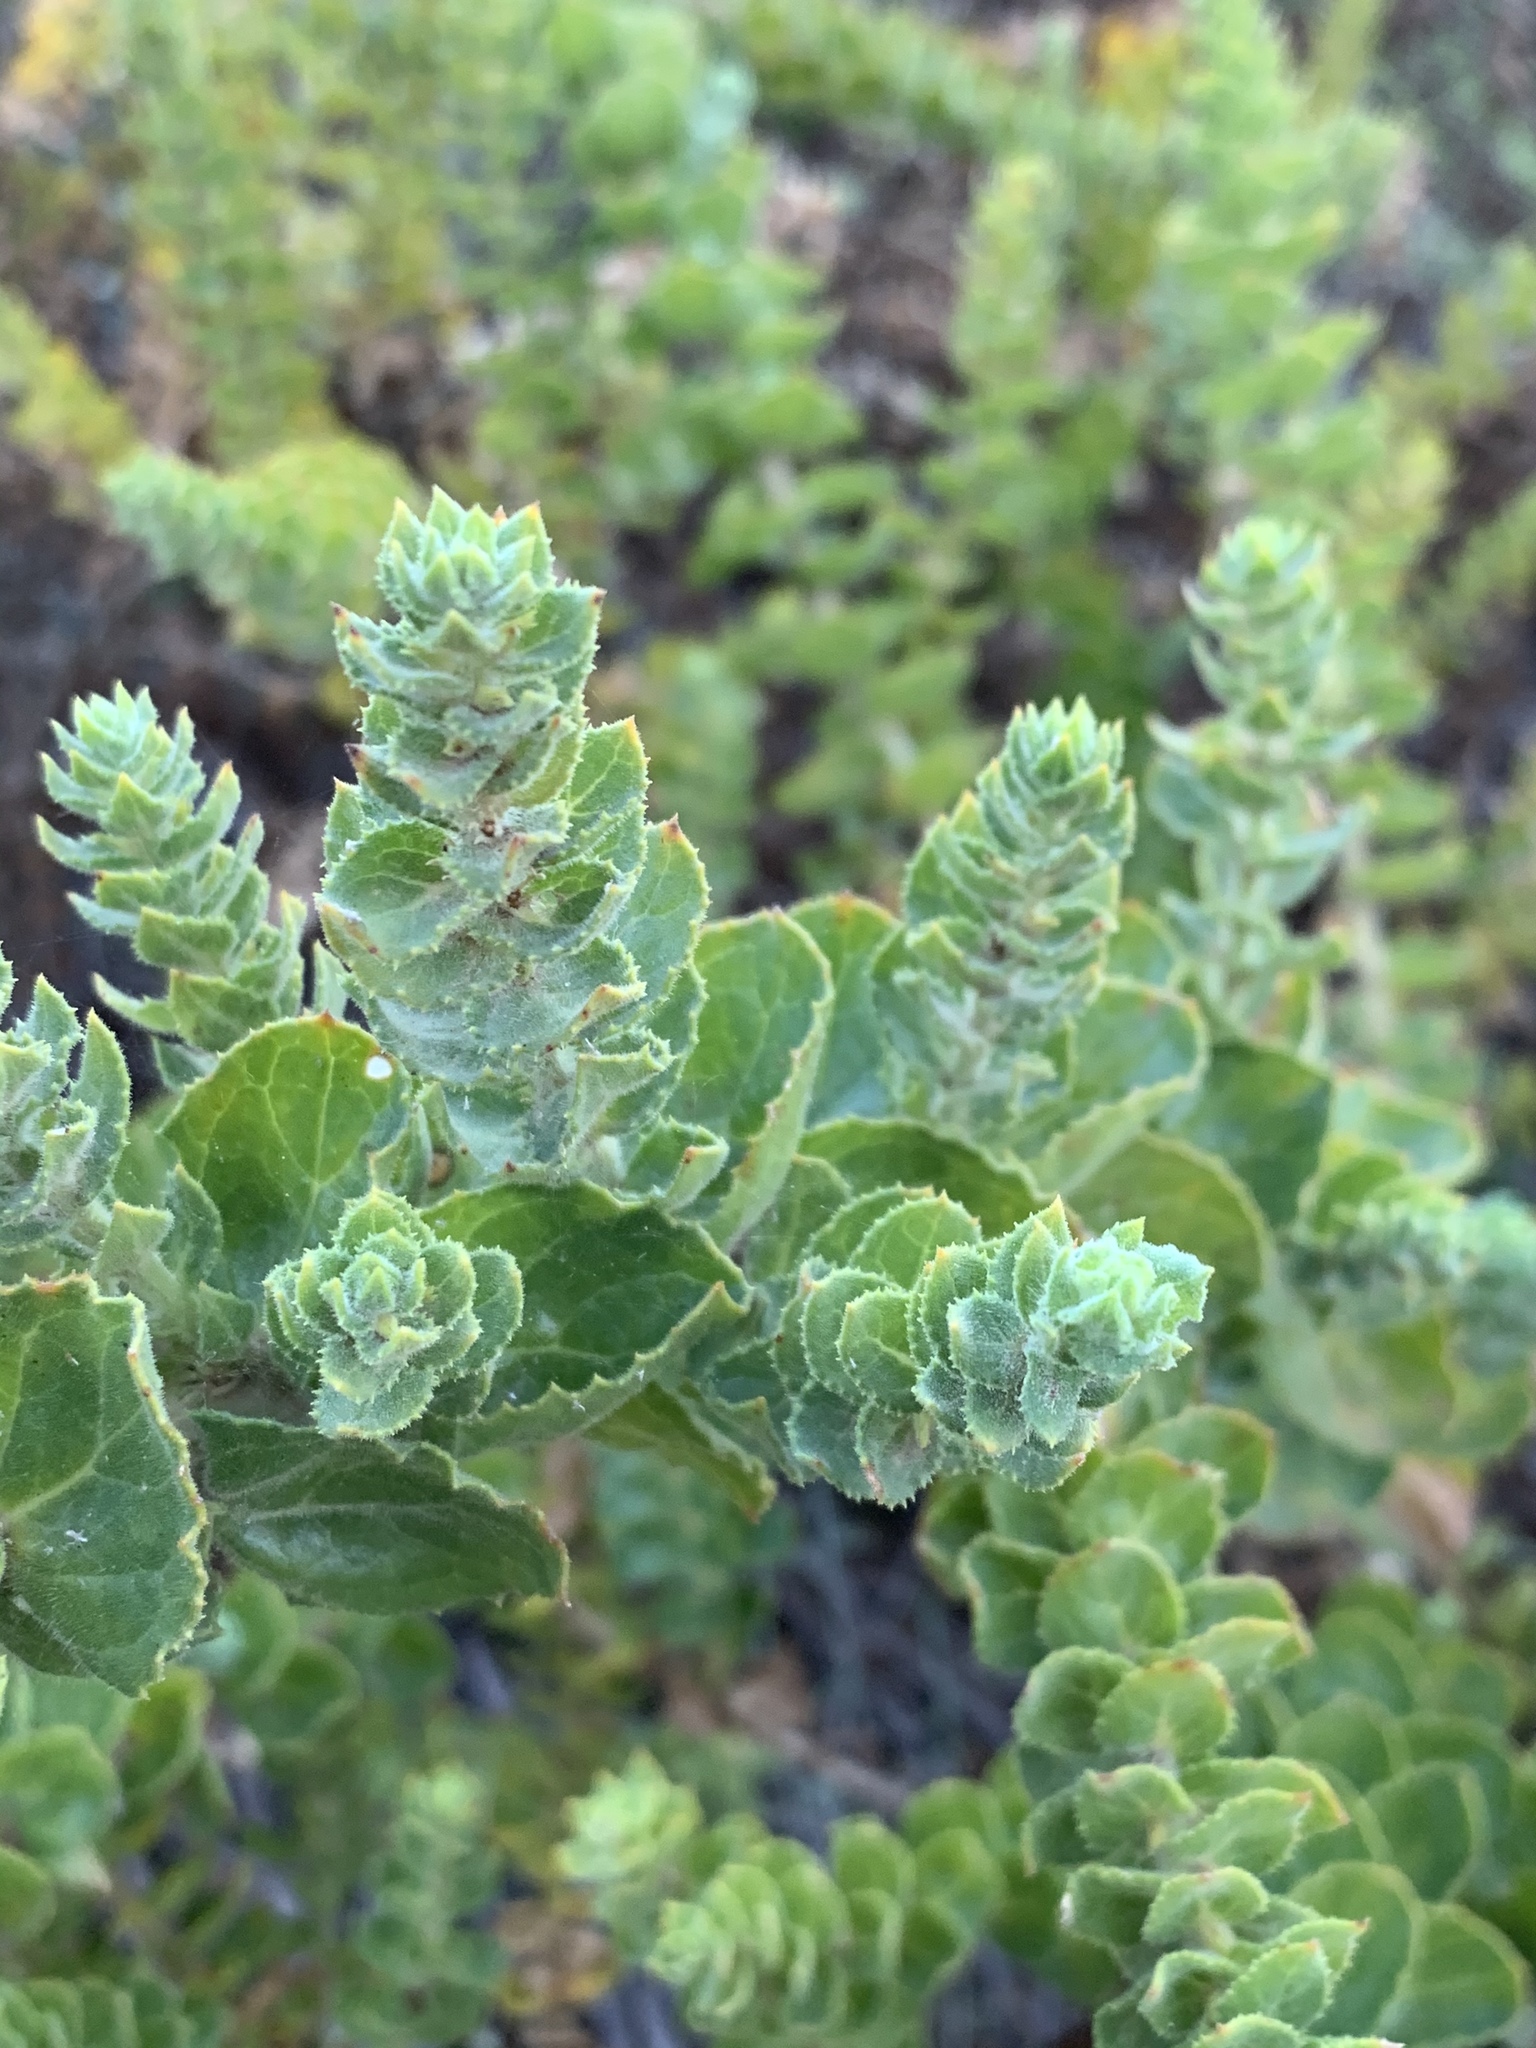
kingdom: Plantae
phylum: Tracheophyta
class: Magnoliopsida
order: Lamiales
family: Scrophulariaceae
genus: Oftia
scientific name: Oftia africana
